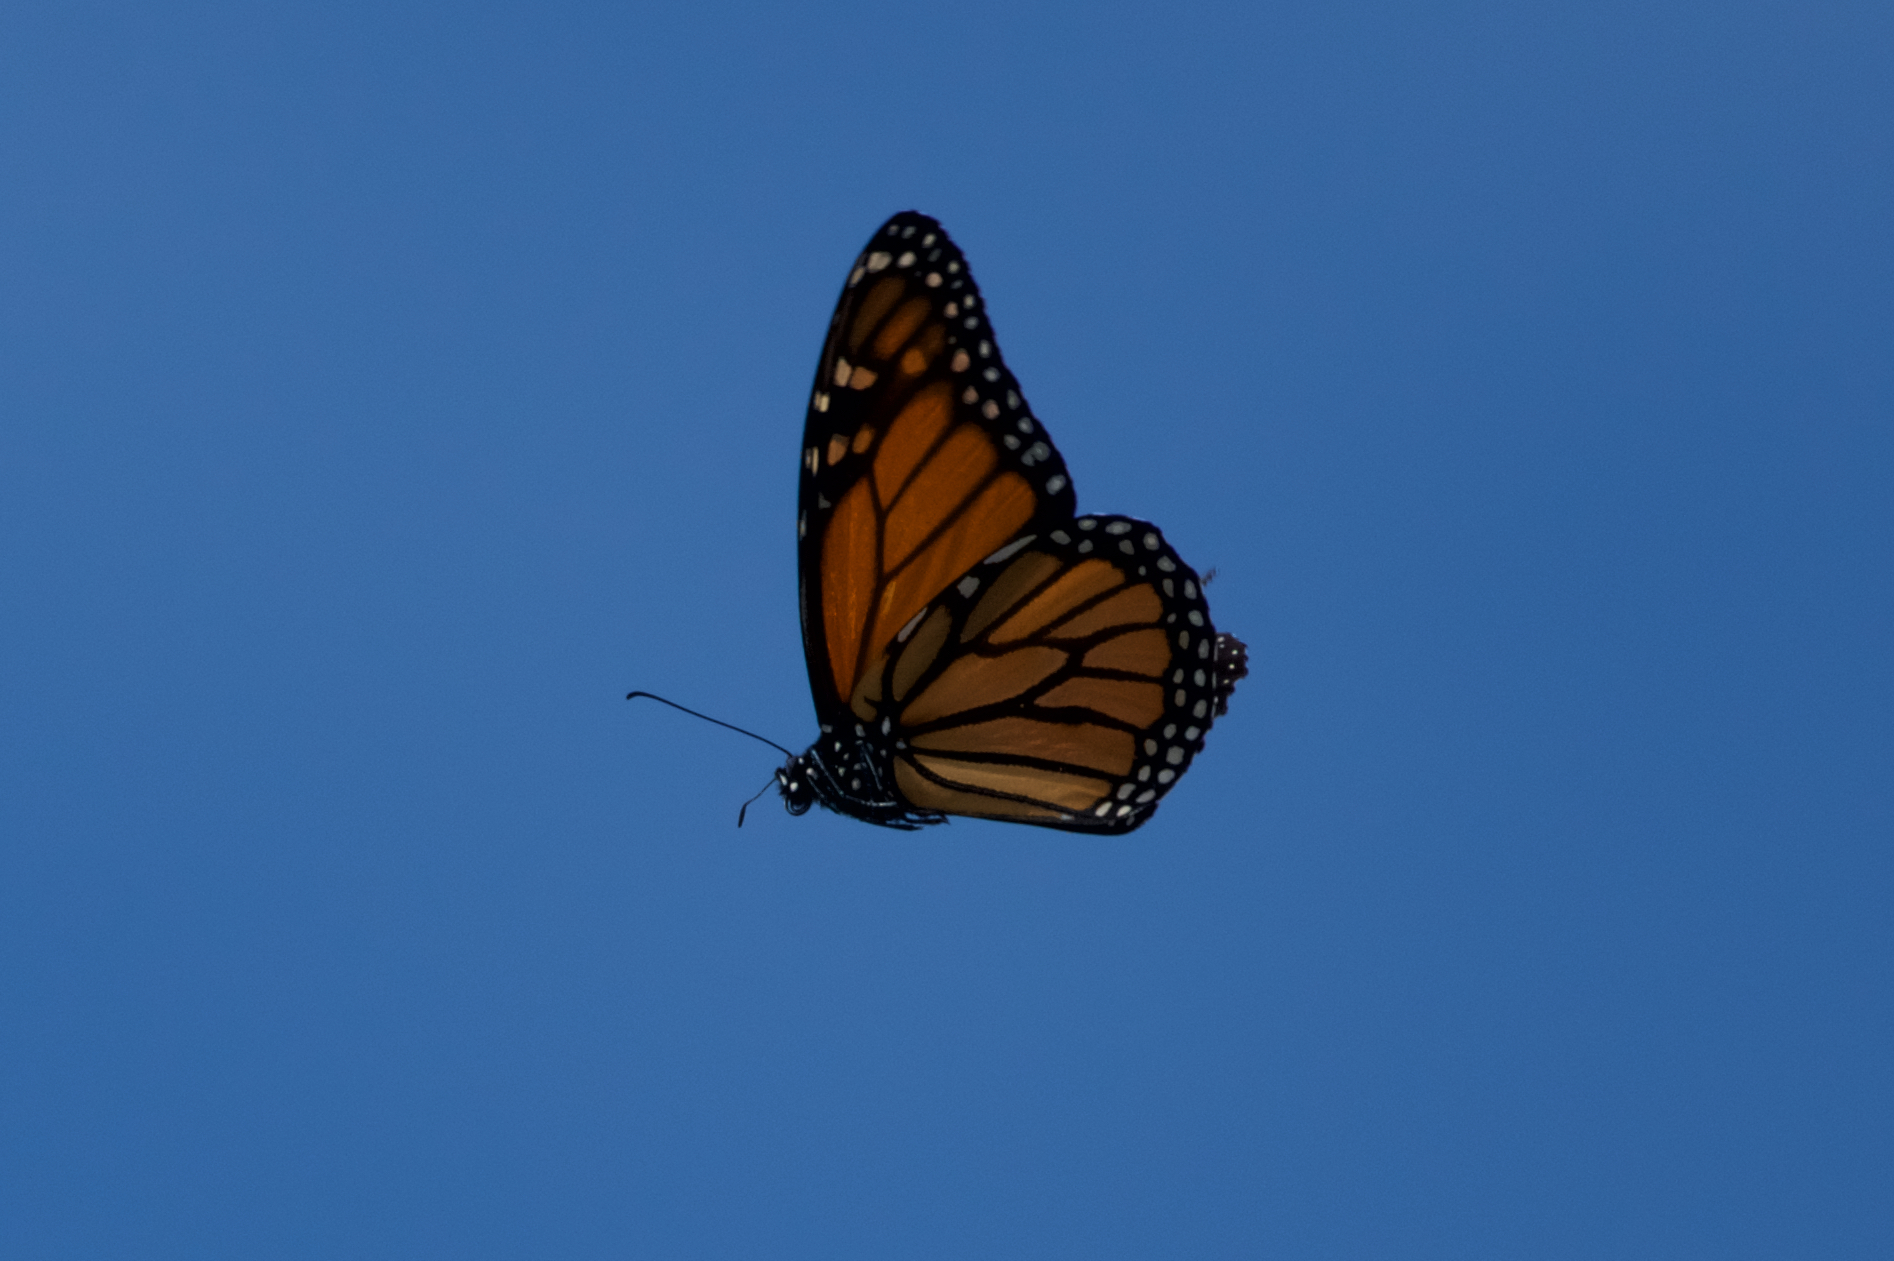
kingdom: Animalia
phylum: Arthropoda
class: Insecta
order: Lepidoptera
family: Nymphalidae
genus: Danaus
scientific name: Danaus plexippus
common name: Monarch
